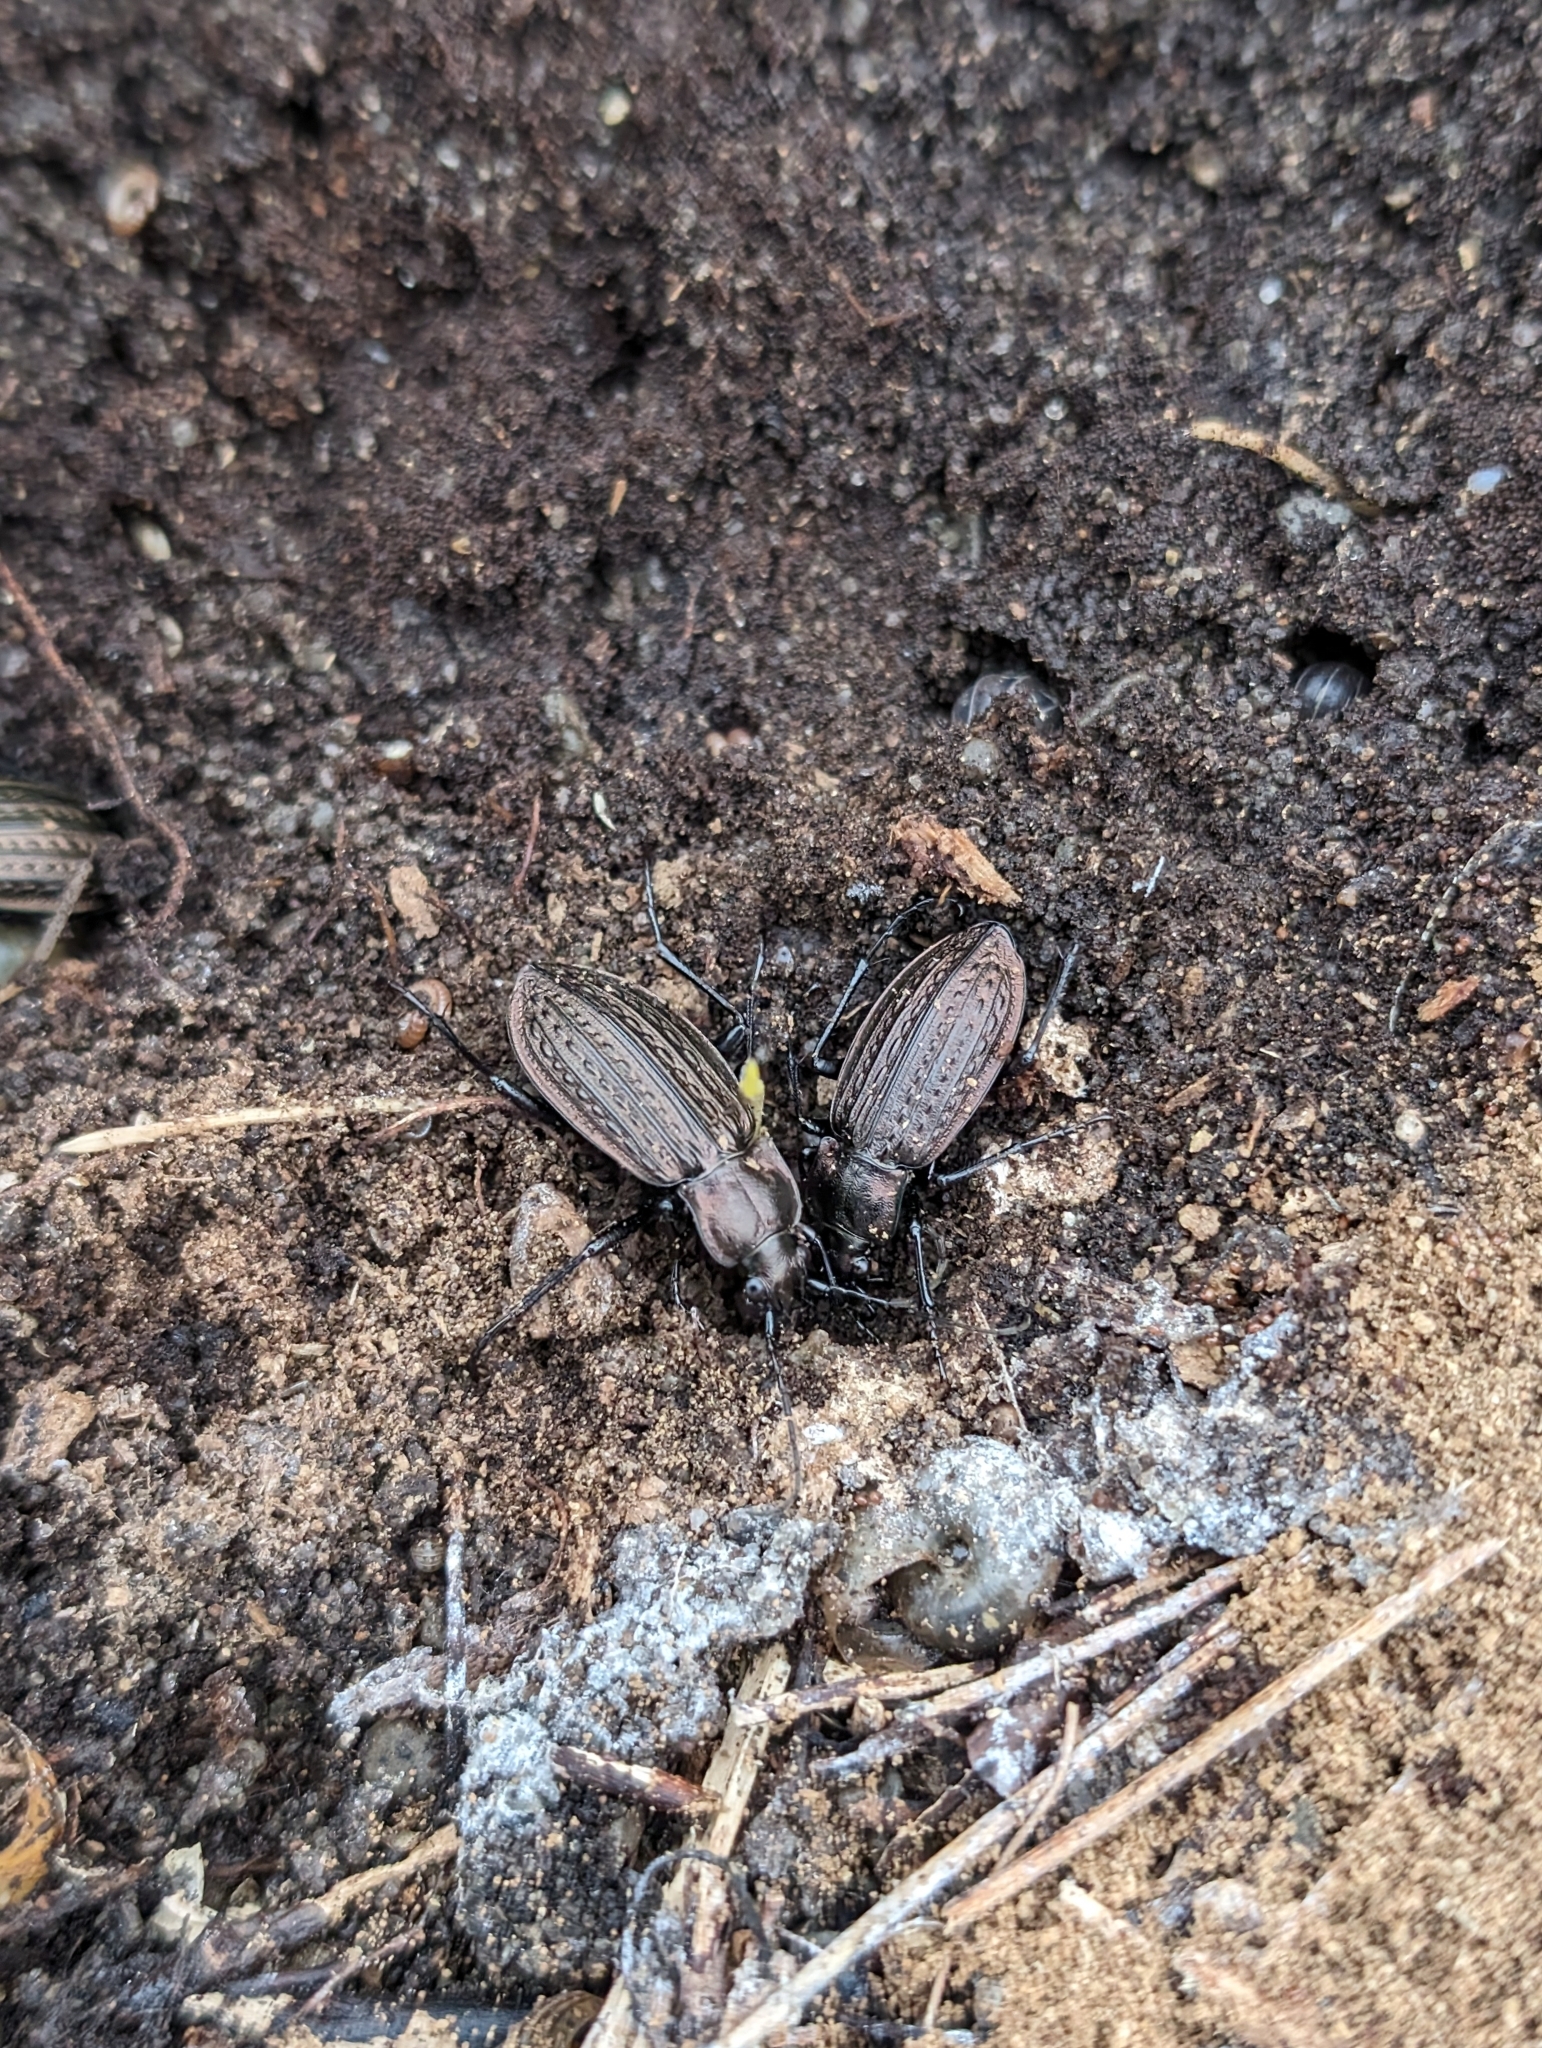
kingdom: Animalia
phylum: Arthropoda
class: Insecta
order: Coleoptera
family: Carabidae
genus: Carabus
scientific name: Carabus granulatus
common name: Granulate ground beetle
